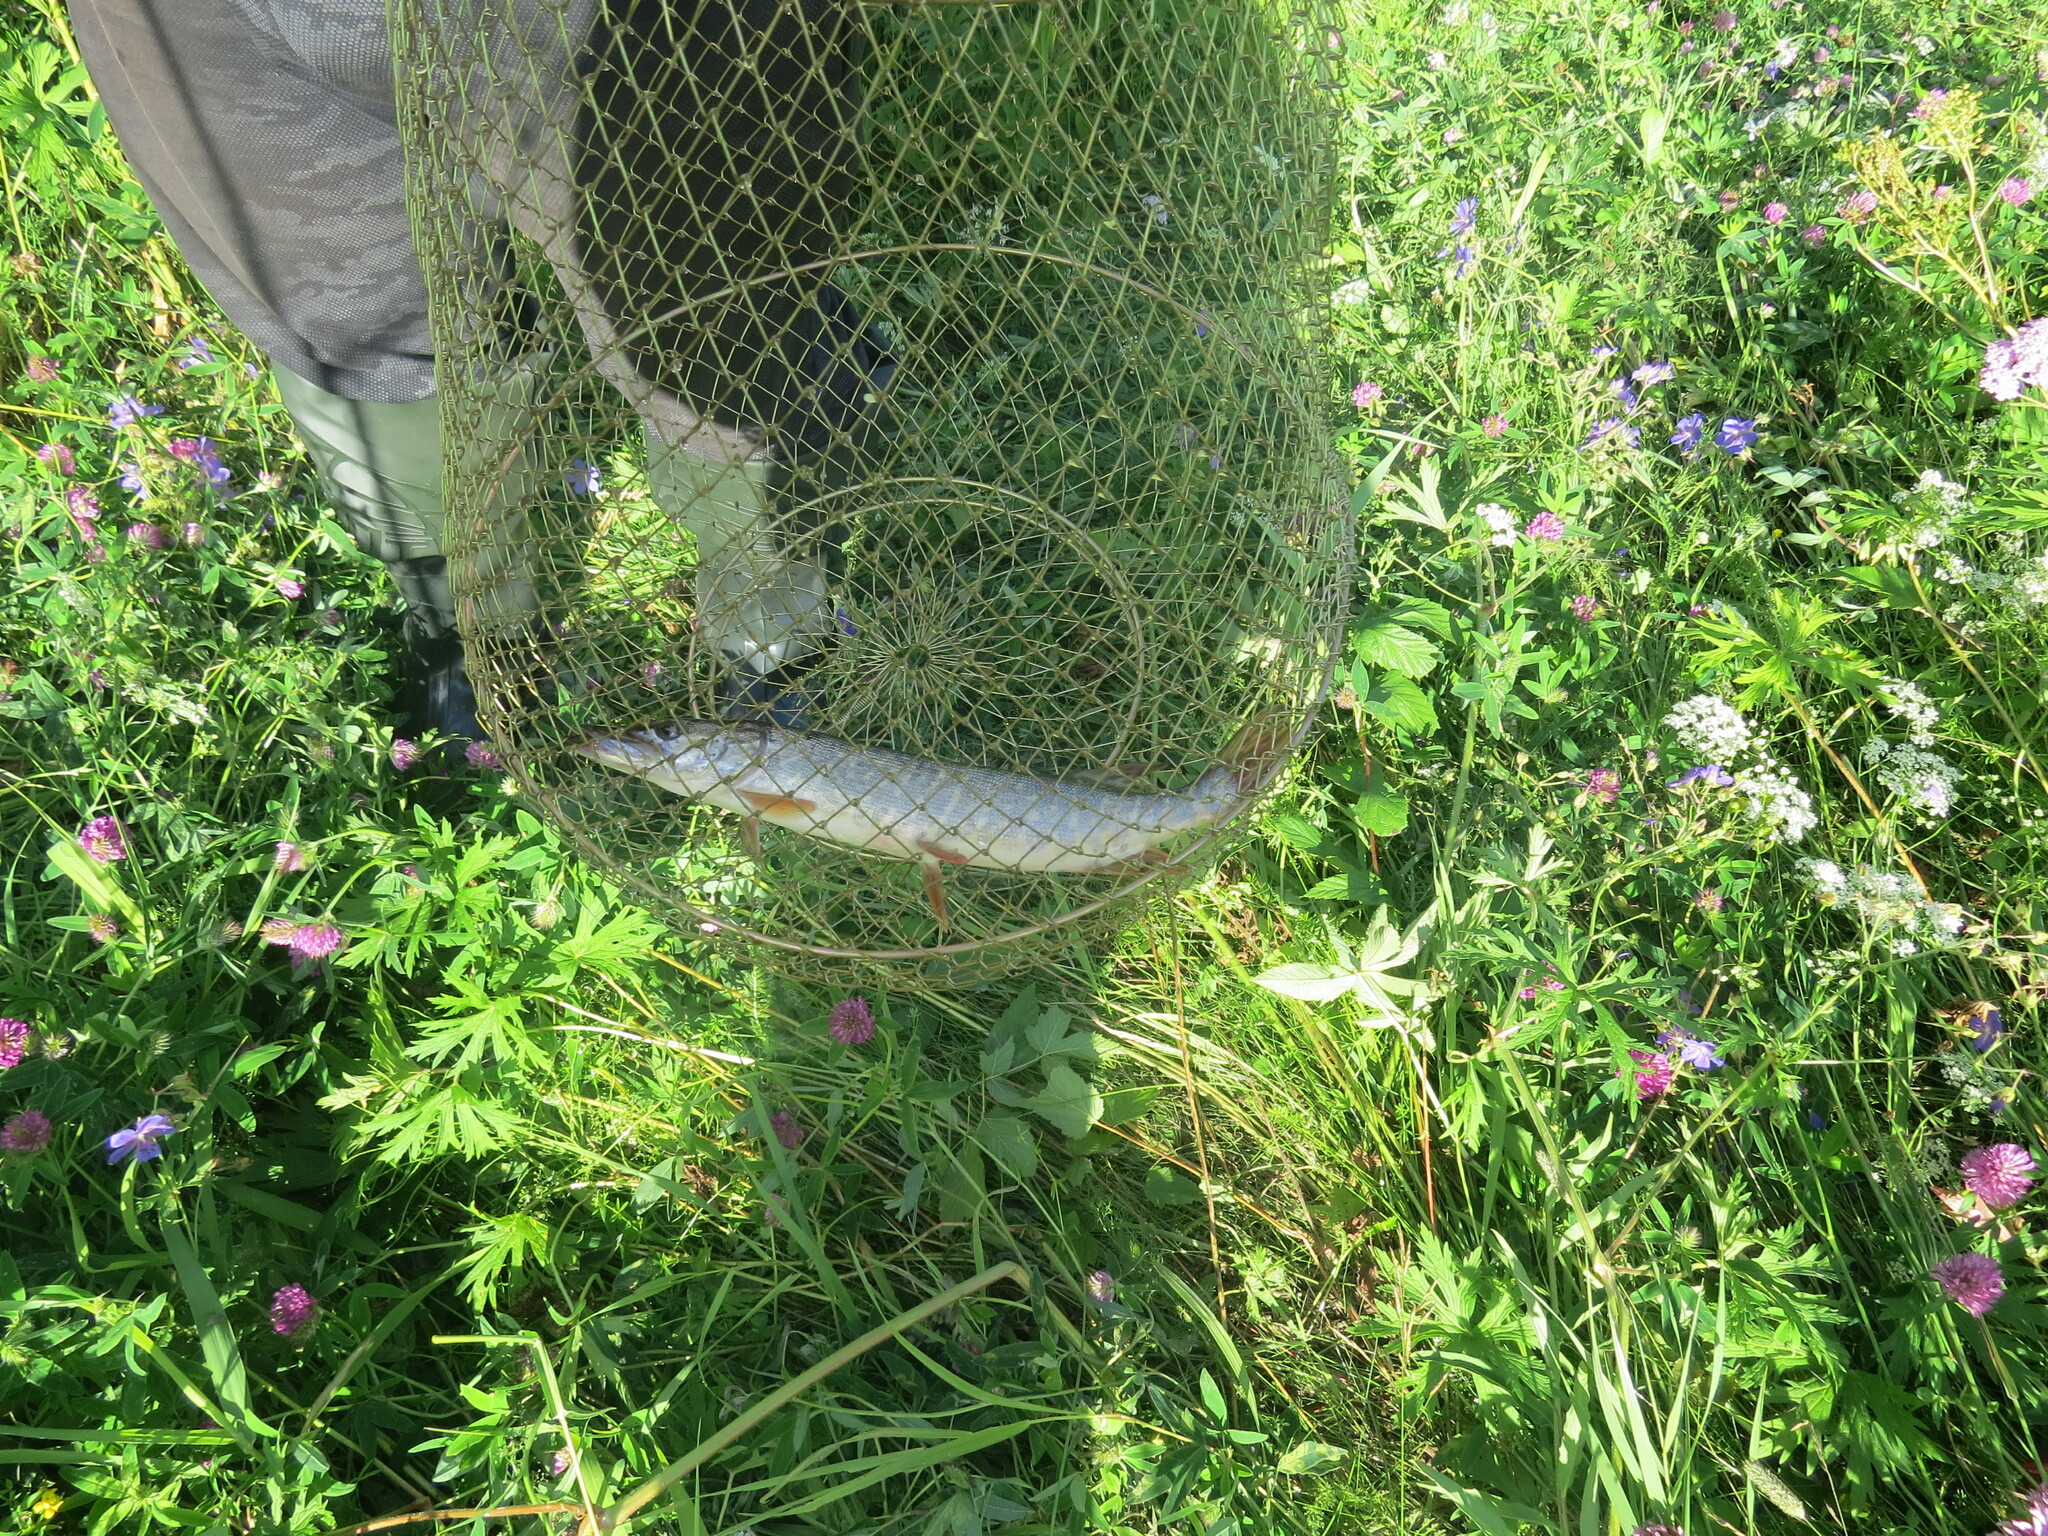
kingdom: Animalia
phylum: Chordata
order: Esociformes
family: Esocidae
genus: Esox
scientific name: Esox lucius
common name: Northern pike
